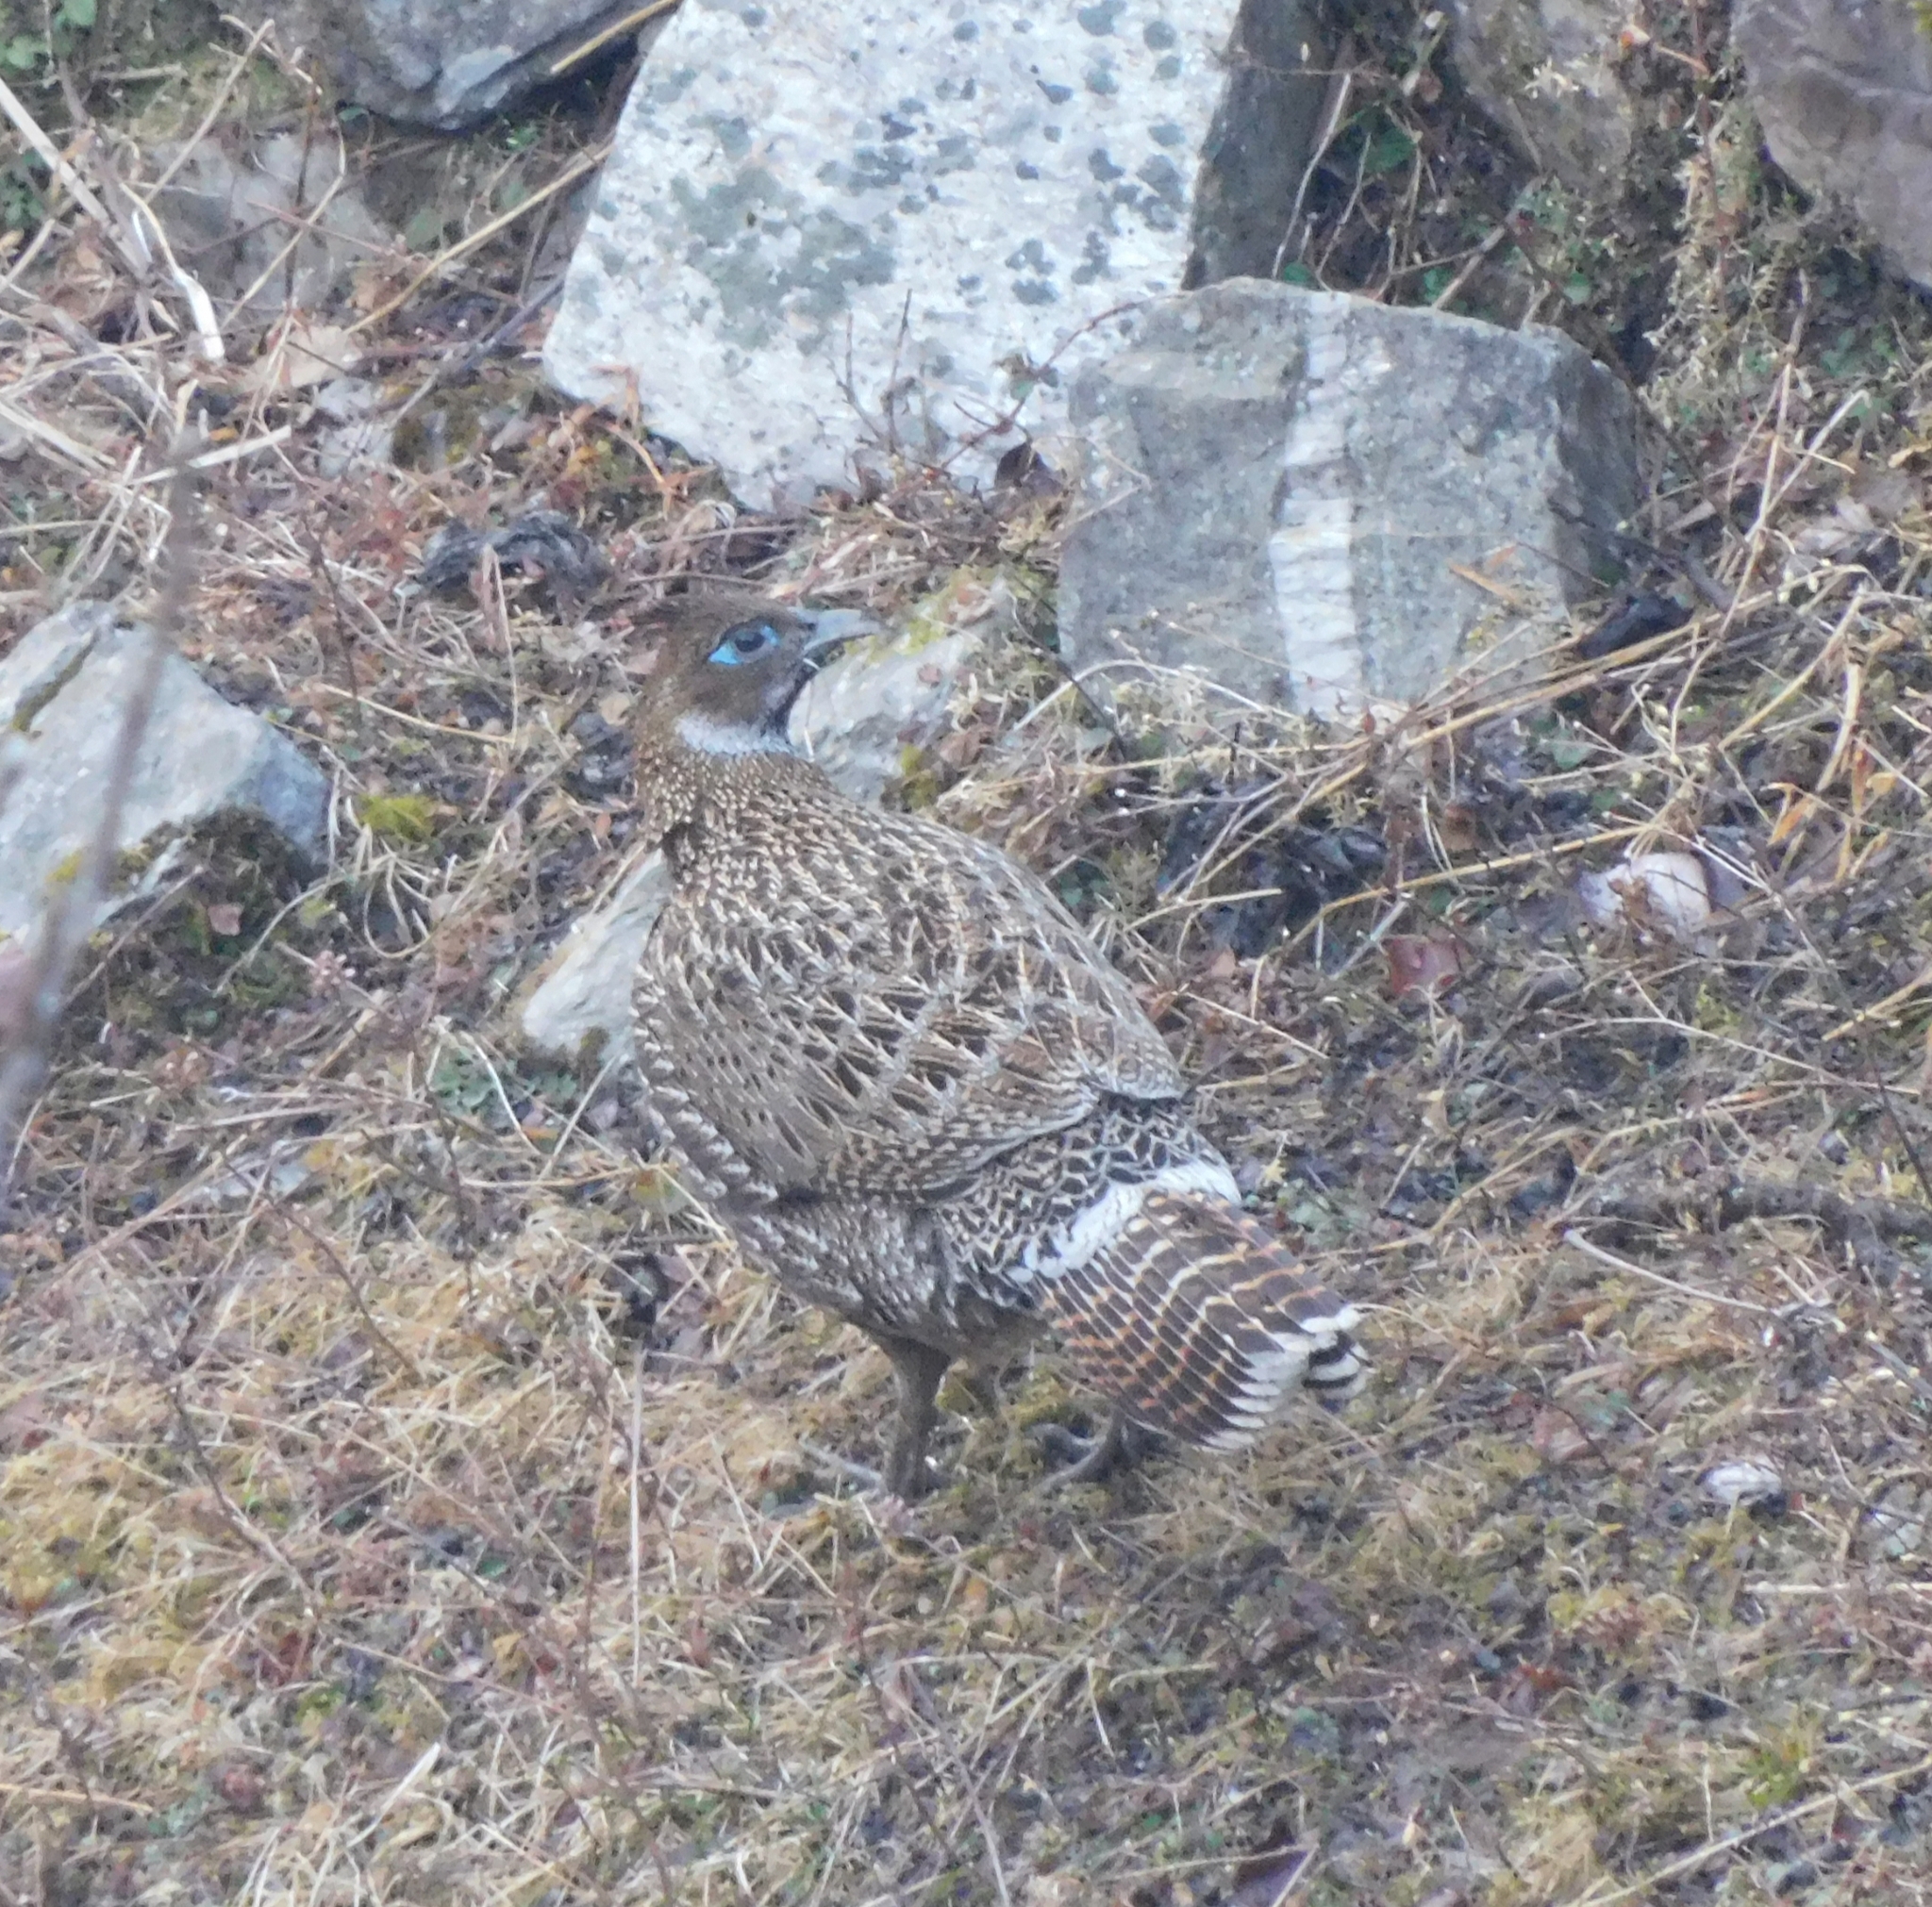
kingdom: Animalia
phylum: Chordata
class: Aves
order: Galliformes
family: Phasianidae
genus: Lophophorus
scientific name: Lophophorus impejanus
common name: Himalayan monal
